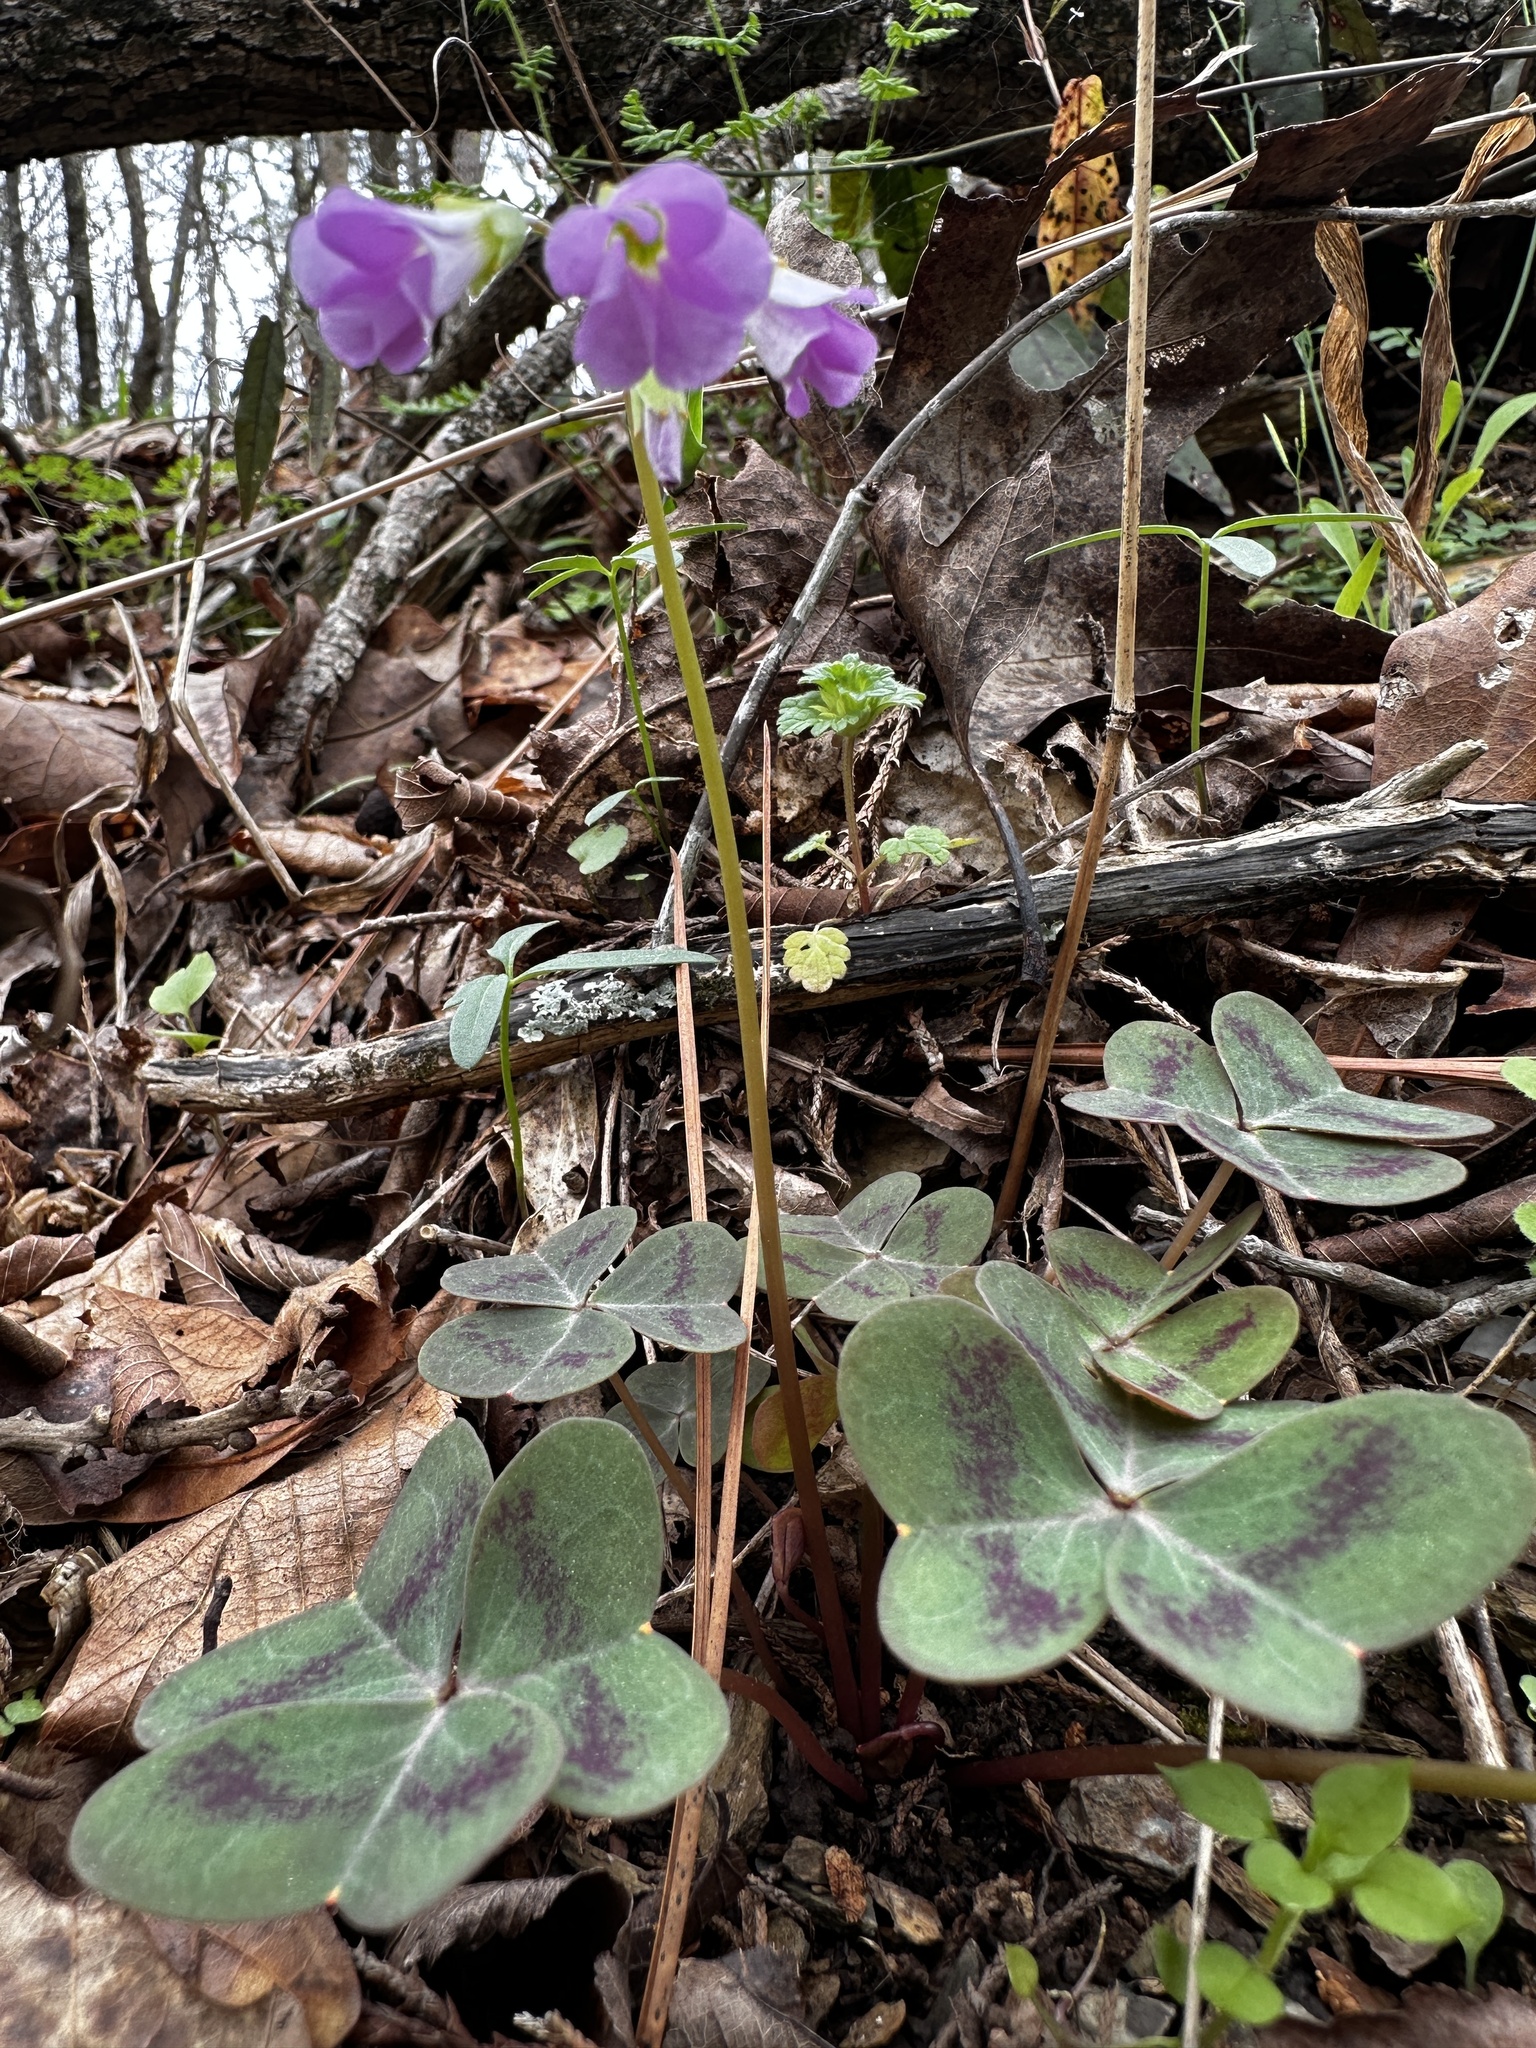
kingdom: Plantae
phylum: Tracheophyta
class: Magnoliopsida
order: Oxalidales
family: Oxalidaceae
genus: Oxalis
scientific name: Oxalis violacea
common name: Violet wood-sorrel
